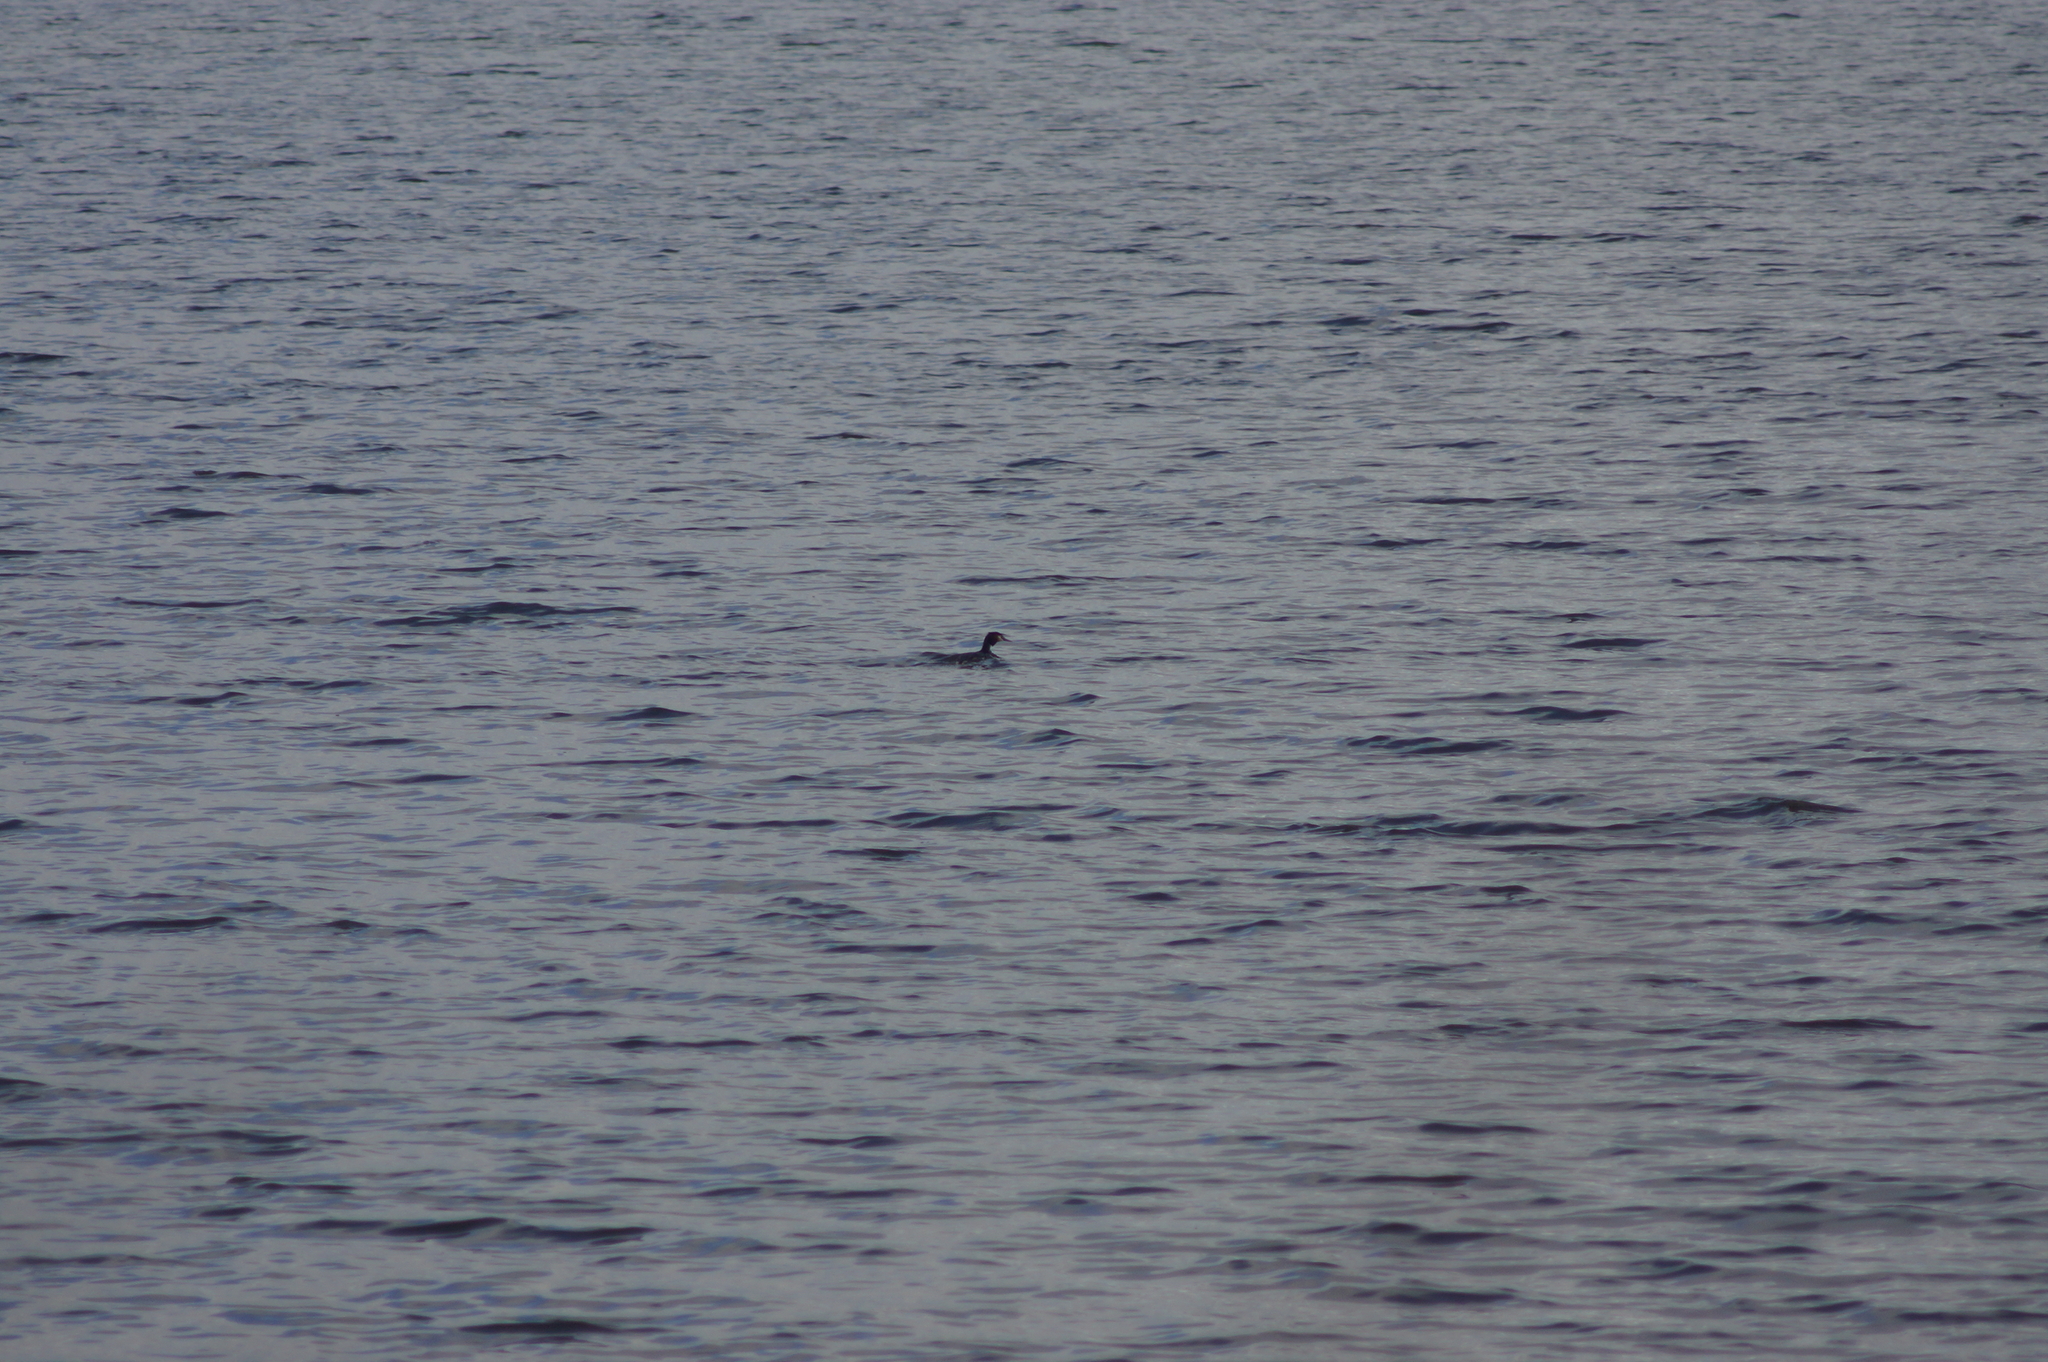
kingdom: Animalia
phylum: Chordata
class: Aves
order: Podicipediformes
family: Podicipedidae
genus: Podiceps
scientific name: Podiceps cristatus
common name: Great crested grebe
